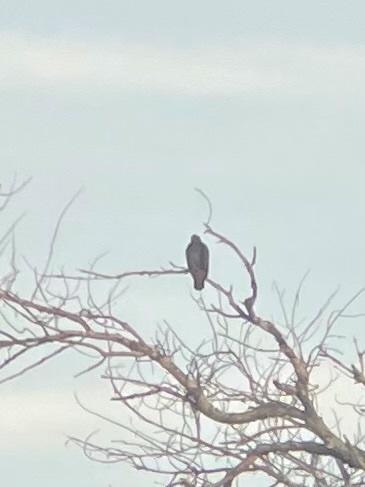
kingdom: Animalia
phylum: Chordata
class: Aves
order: Accipitriformes
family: Accipitridae
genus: Buteo
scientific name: Buteo jamaicensis
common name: Red-tailed hawk
